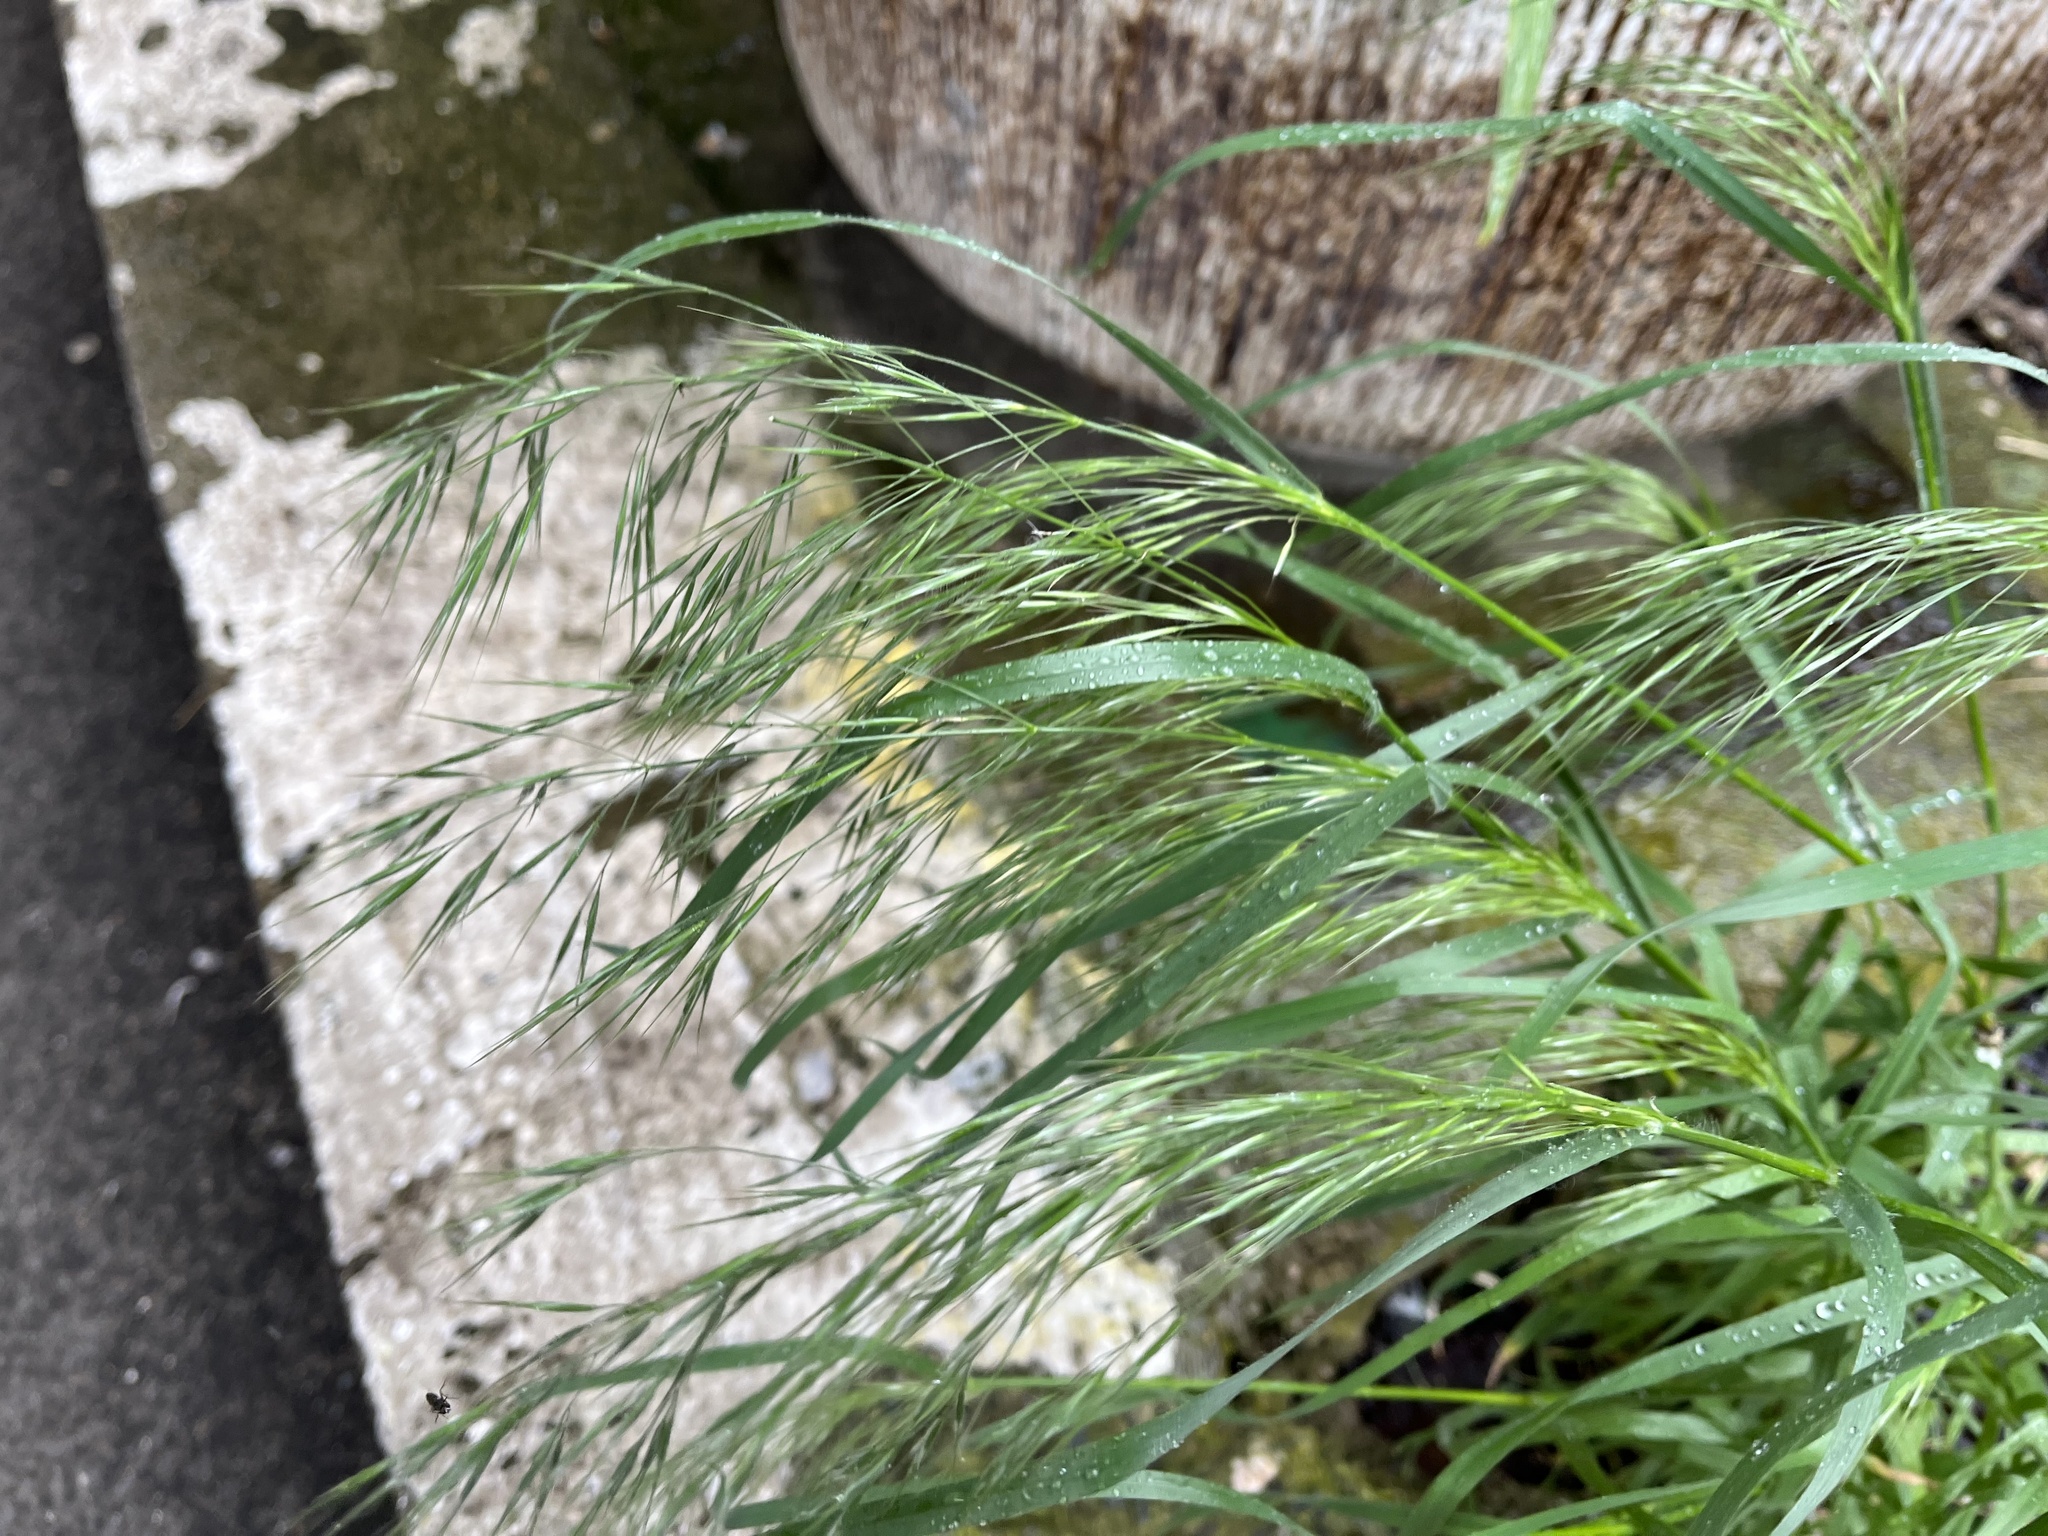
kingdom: Plantae
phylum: Tracheophyta
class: Liliopsida
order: Poales
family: Poaceae
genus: Bromus
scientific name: Bromus tectorum
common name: Cheatgrass
